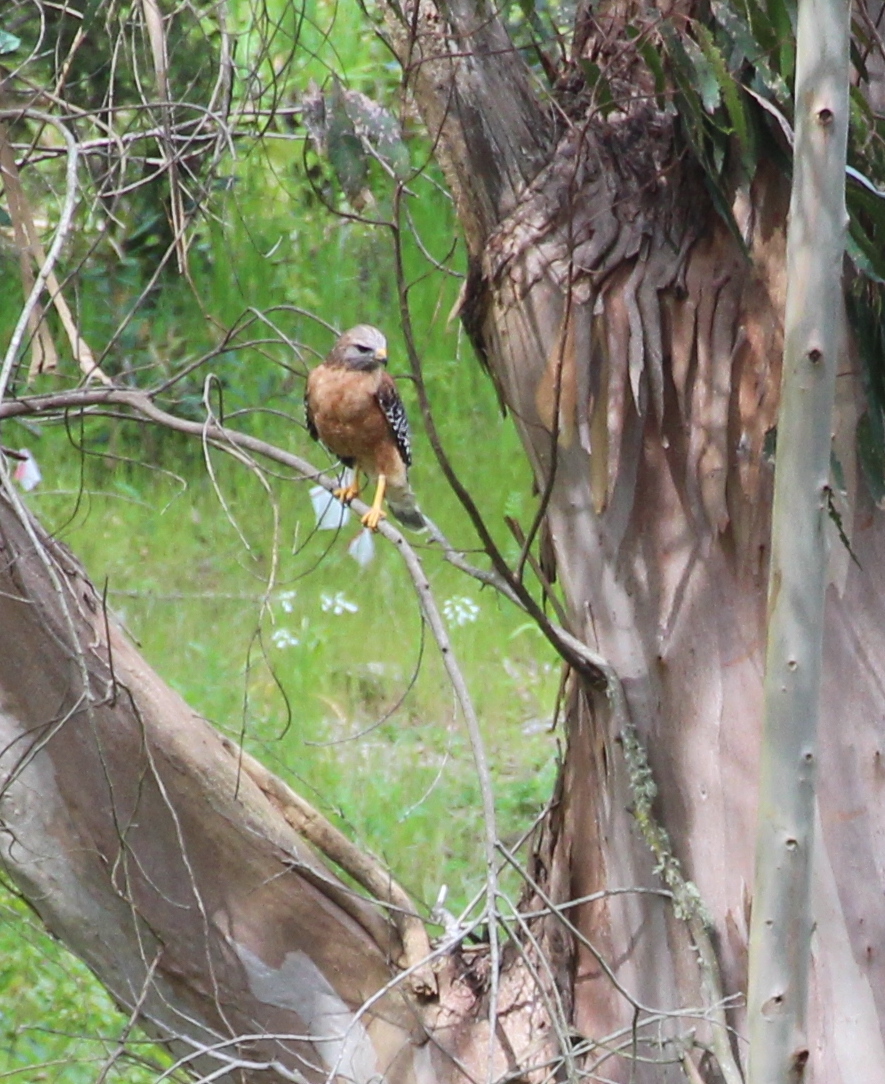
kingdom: Animalia
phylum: Chordata
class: Aves
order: Accipitriformes
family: Accipitridae
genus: Buteo
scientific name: Buteo lineatus
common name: Red-shouldered hawk
